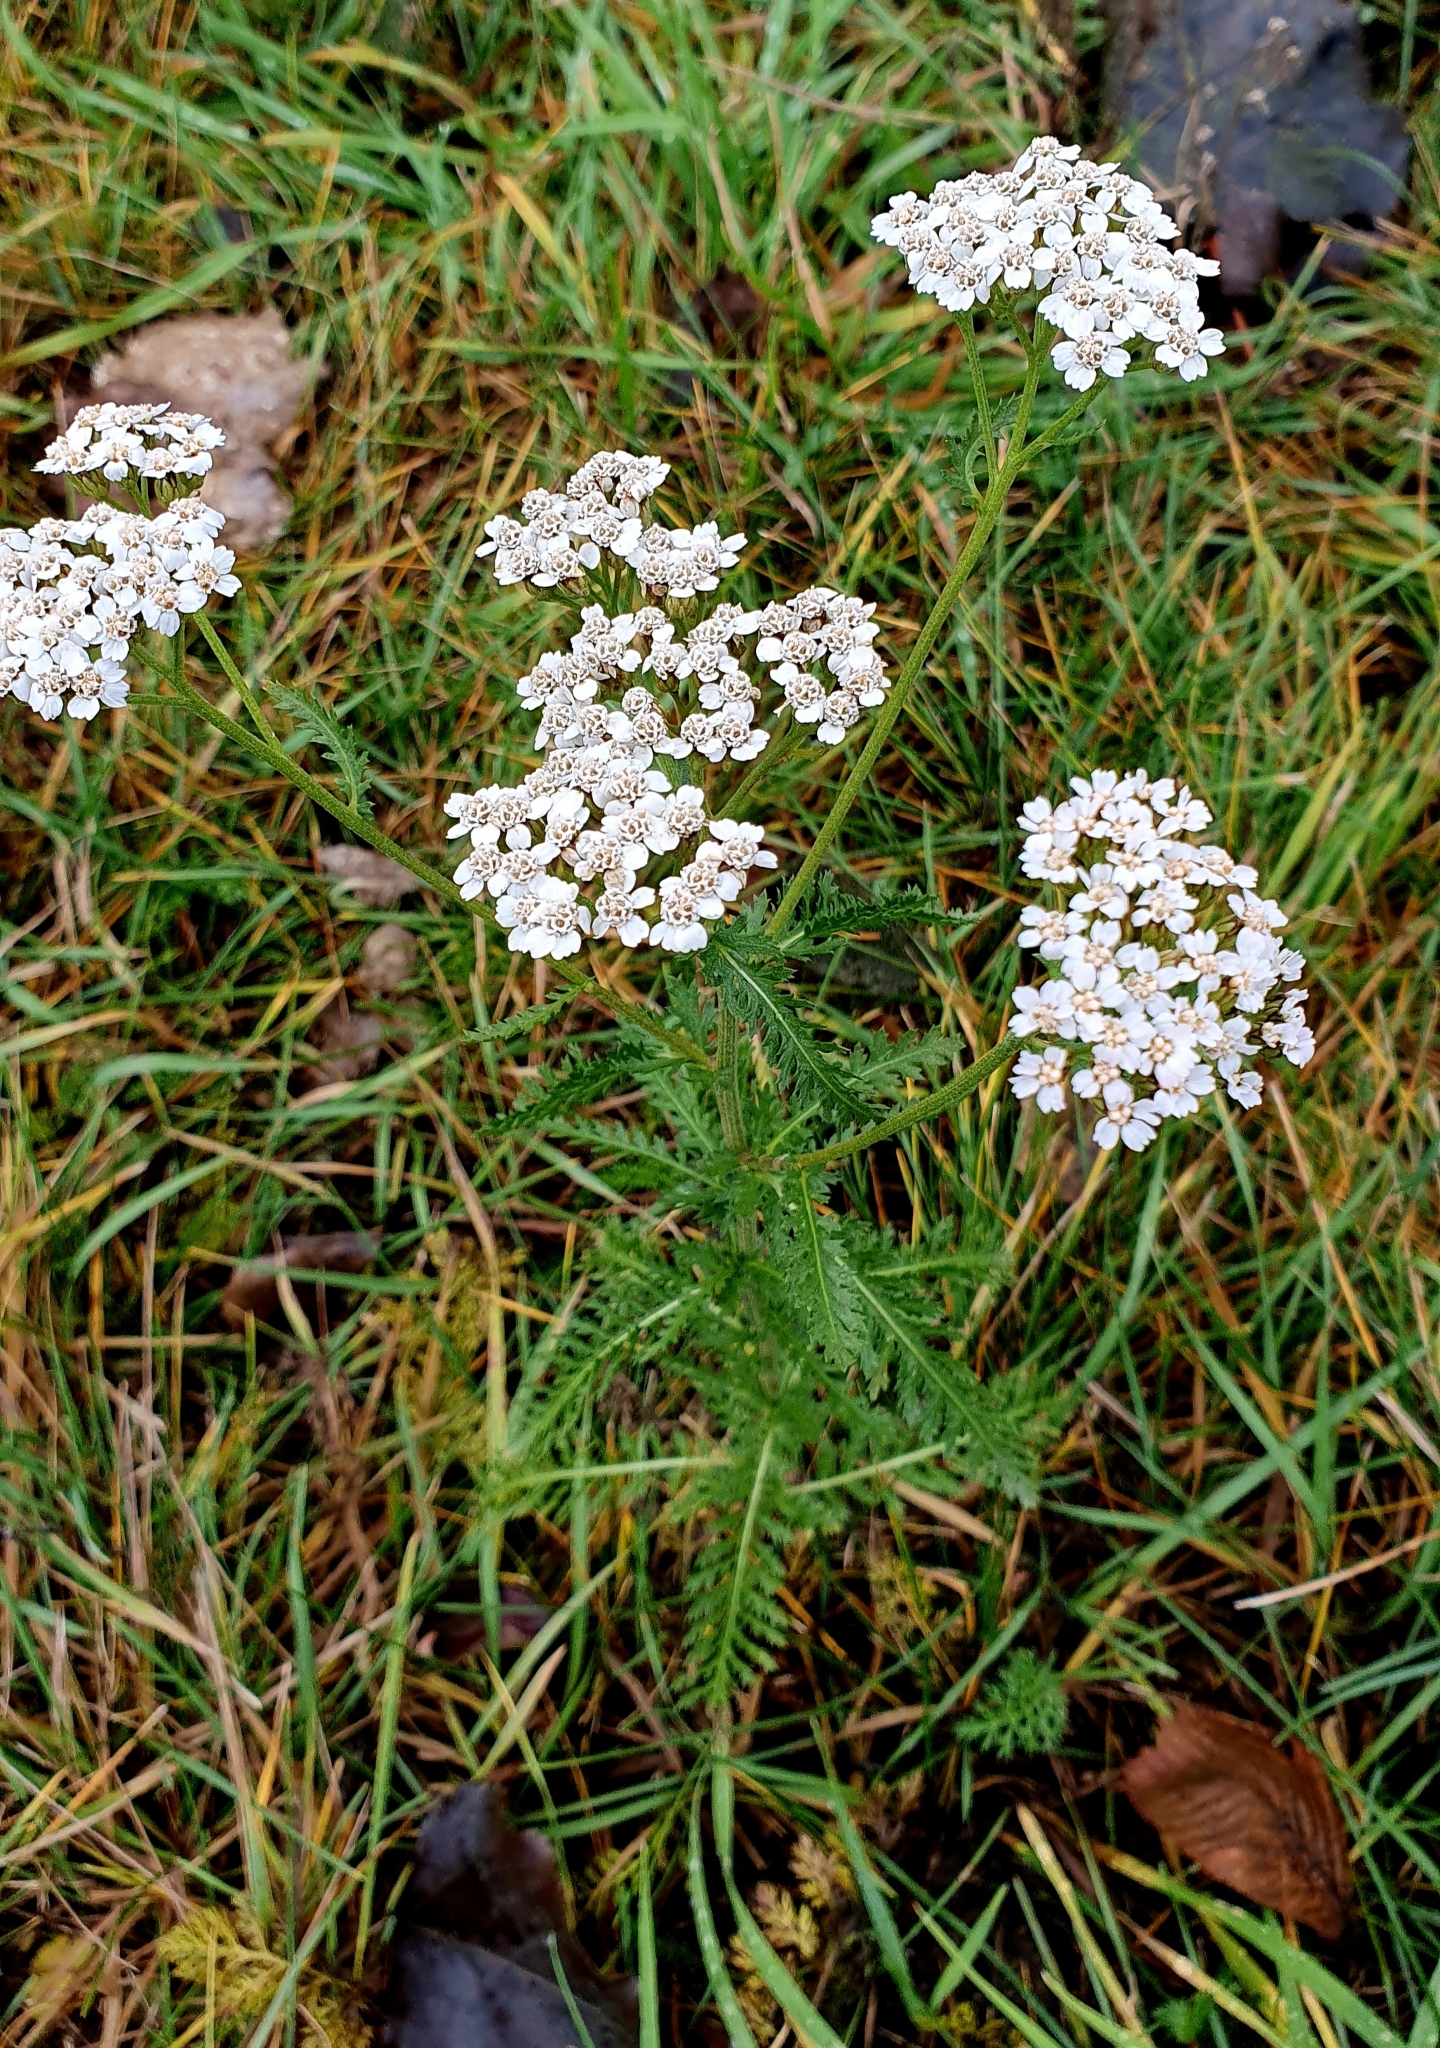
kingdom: Plantae
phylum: Tracheophyta
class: Magnoliopsida
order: Asterales
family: Asteraceae
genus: Achillea
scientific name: Achillea millefolium
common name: Yarrow
